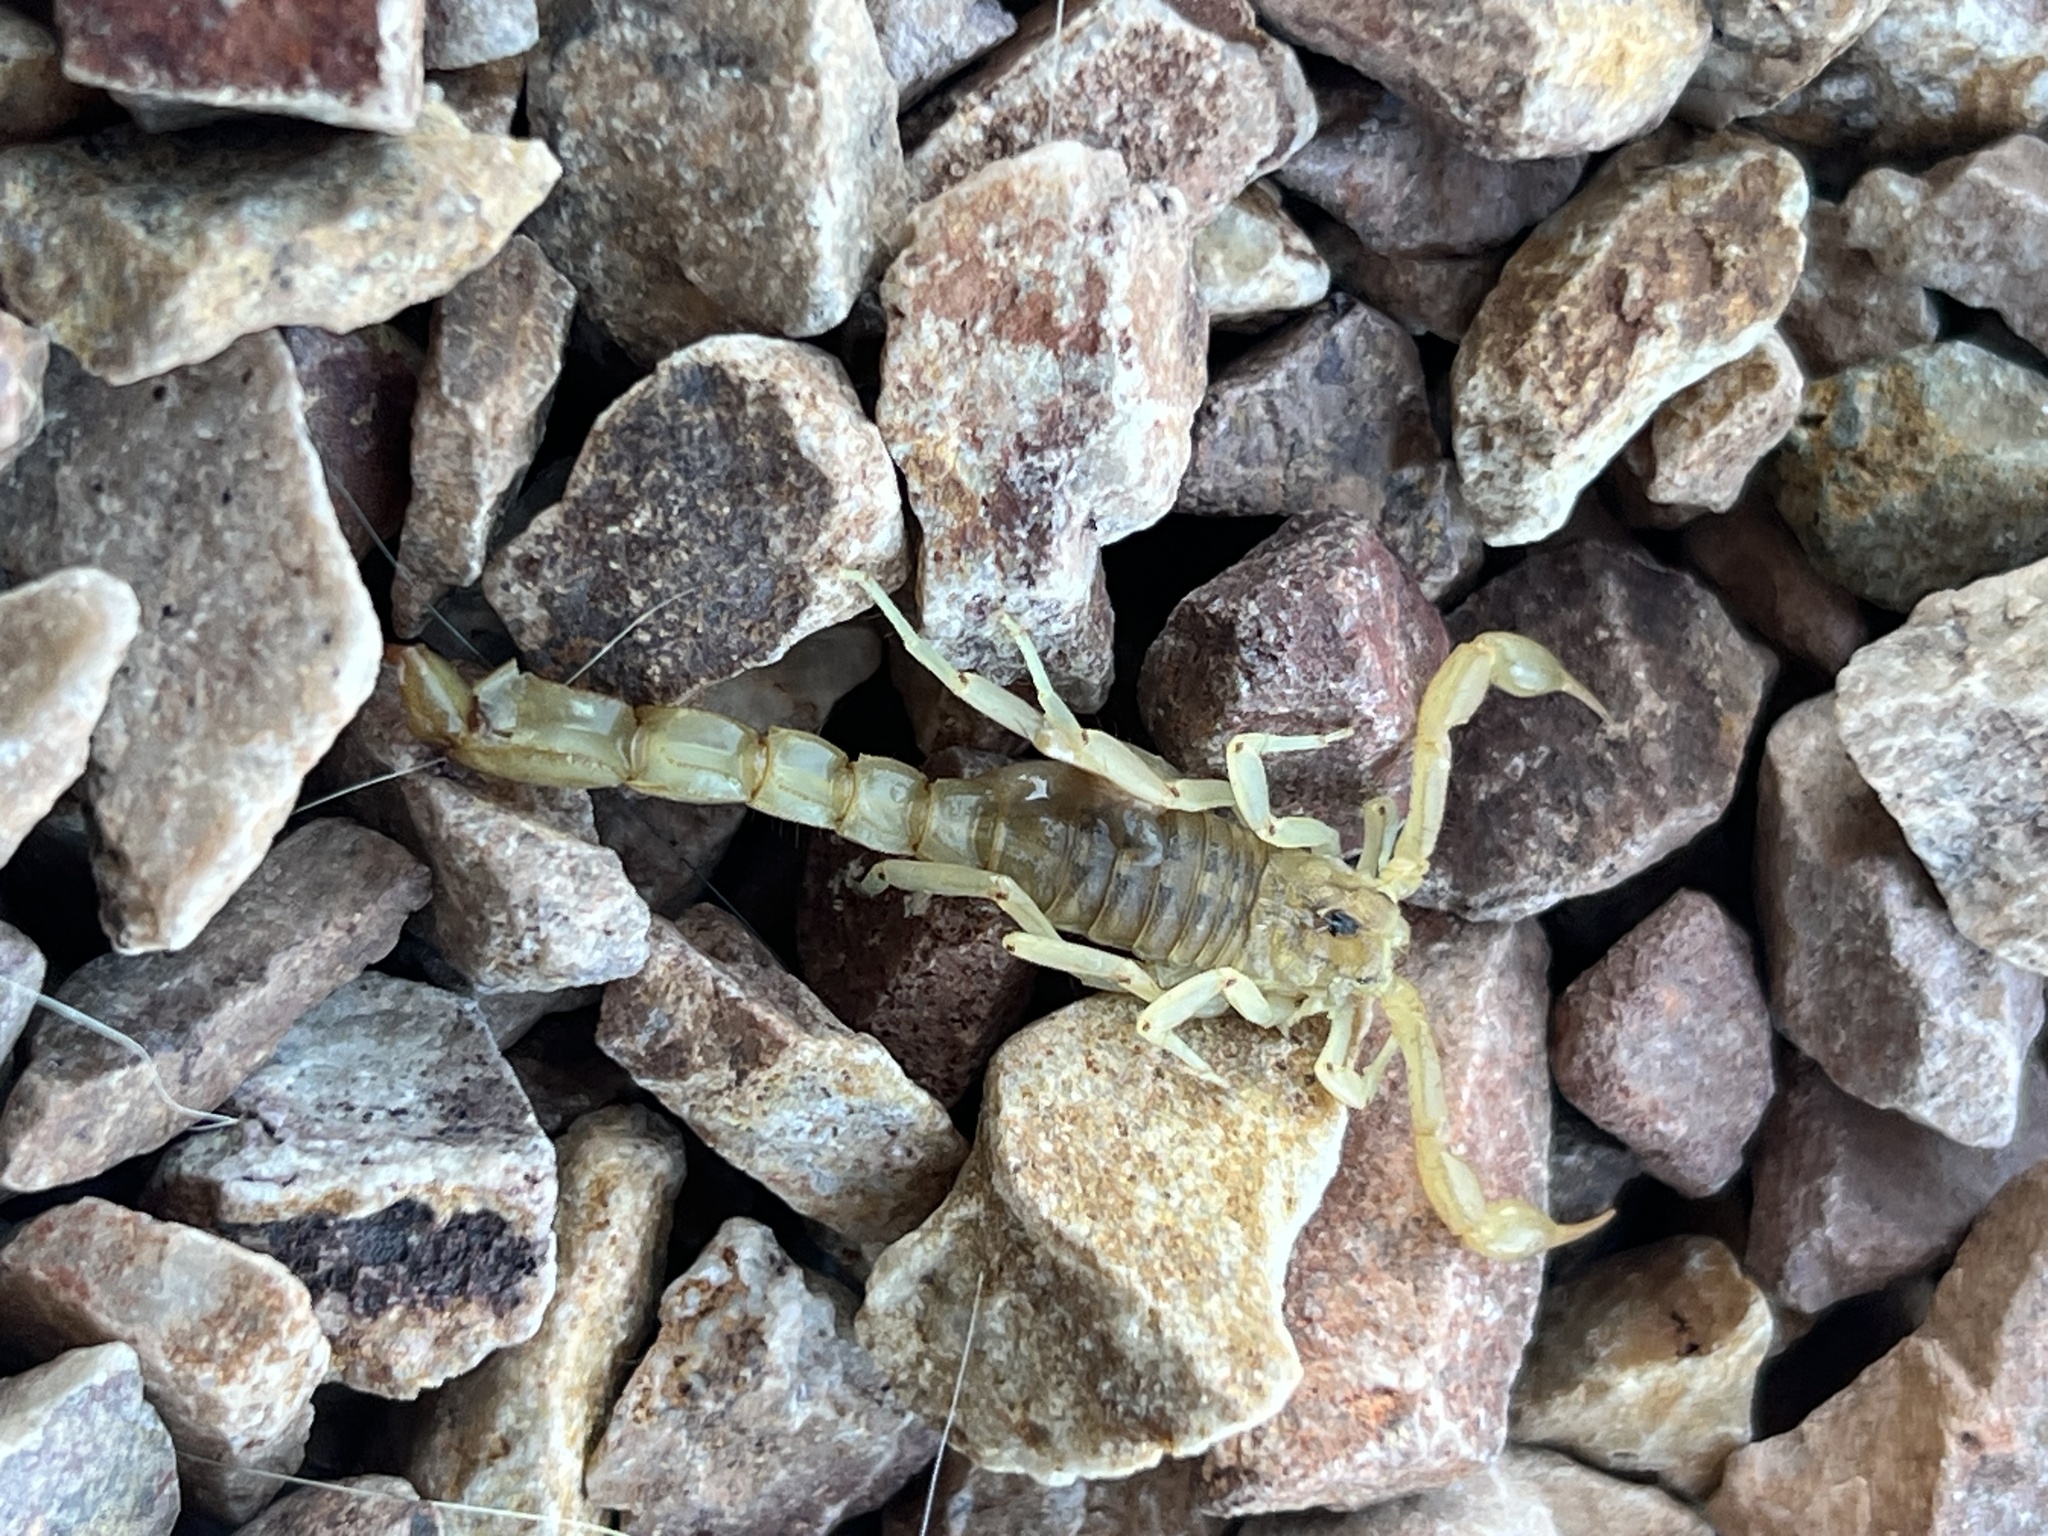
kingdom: Animalia
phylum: Arthropoda
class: Arachnida
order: Scorpiones
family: Vaejovidae
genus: Paravaejovis
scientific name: Paravaejovis spinigerus
